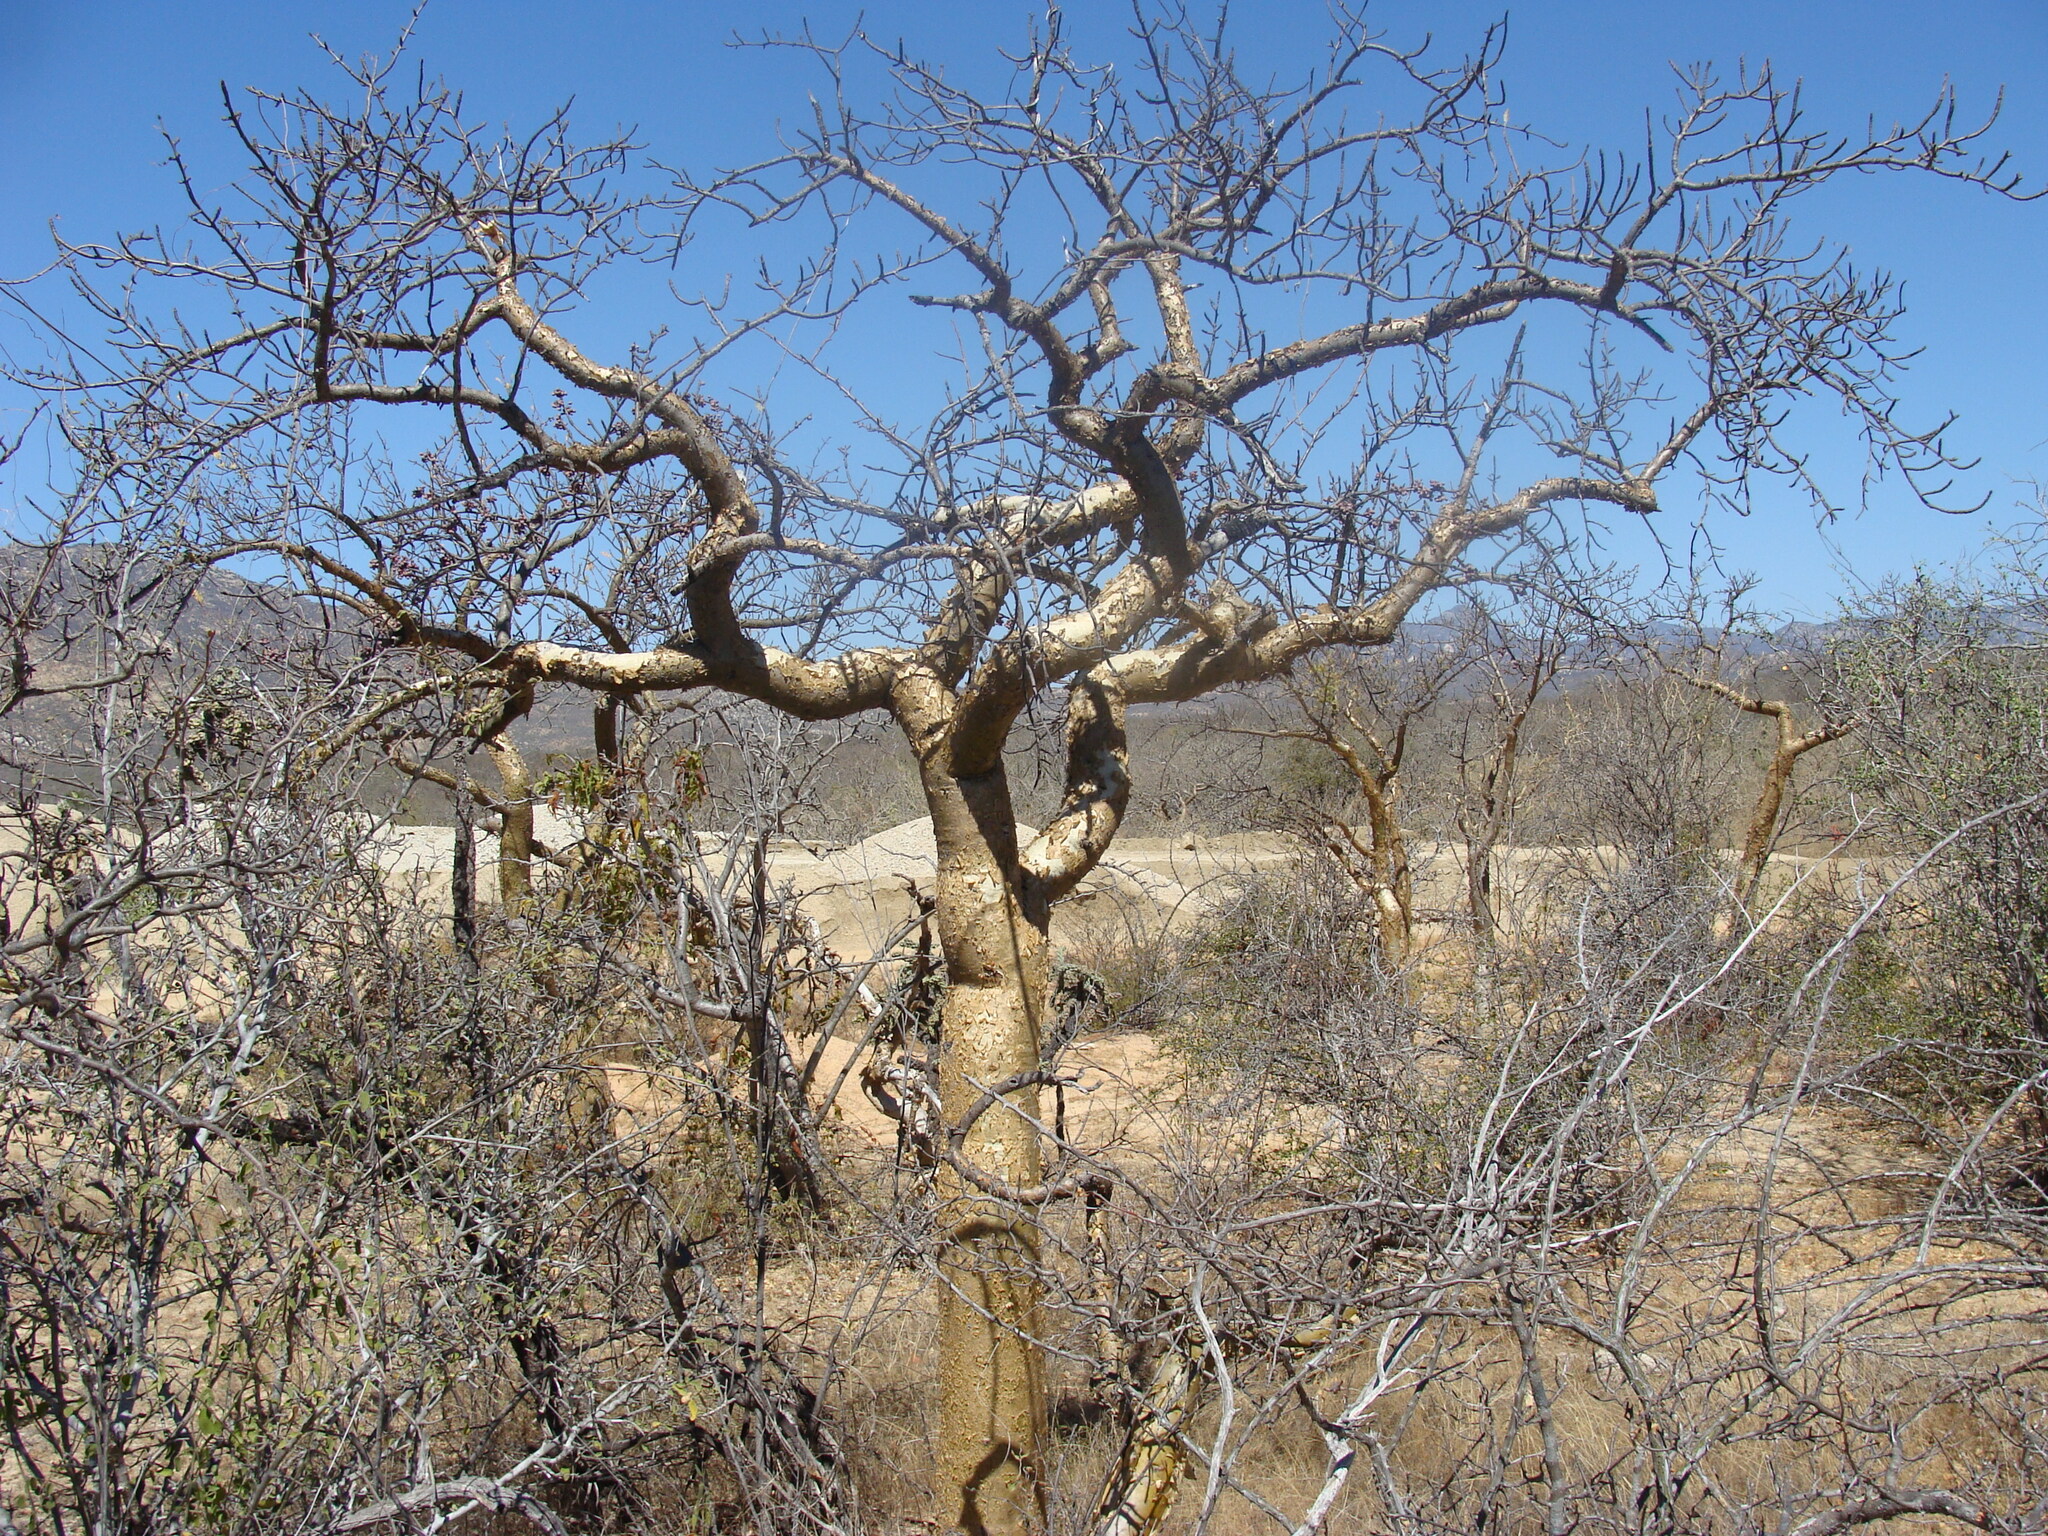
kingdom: Plantae
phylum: Tracheophyta
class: Magnoliopsida
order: Sapindales
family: Burseraceae
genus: Bursera
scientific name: Bursera microphylla
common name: Elephant tree
